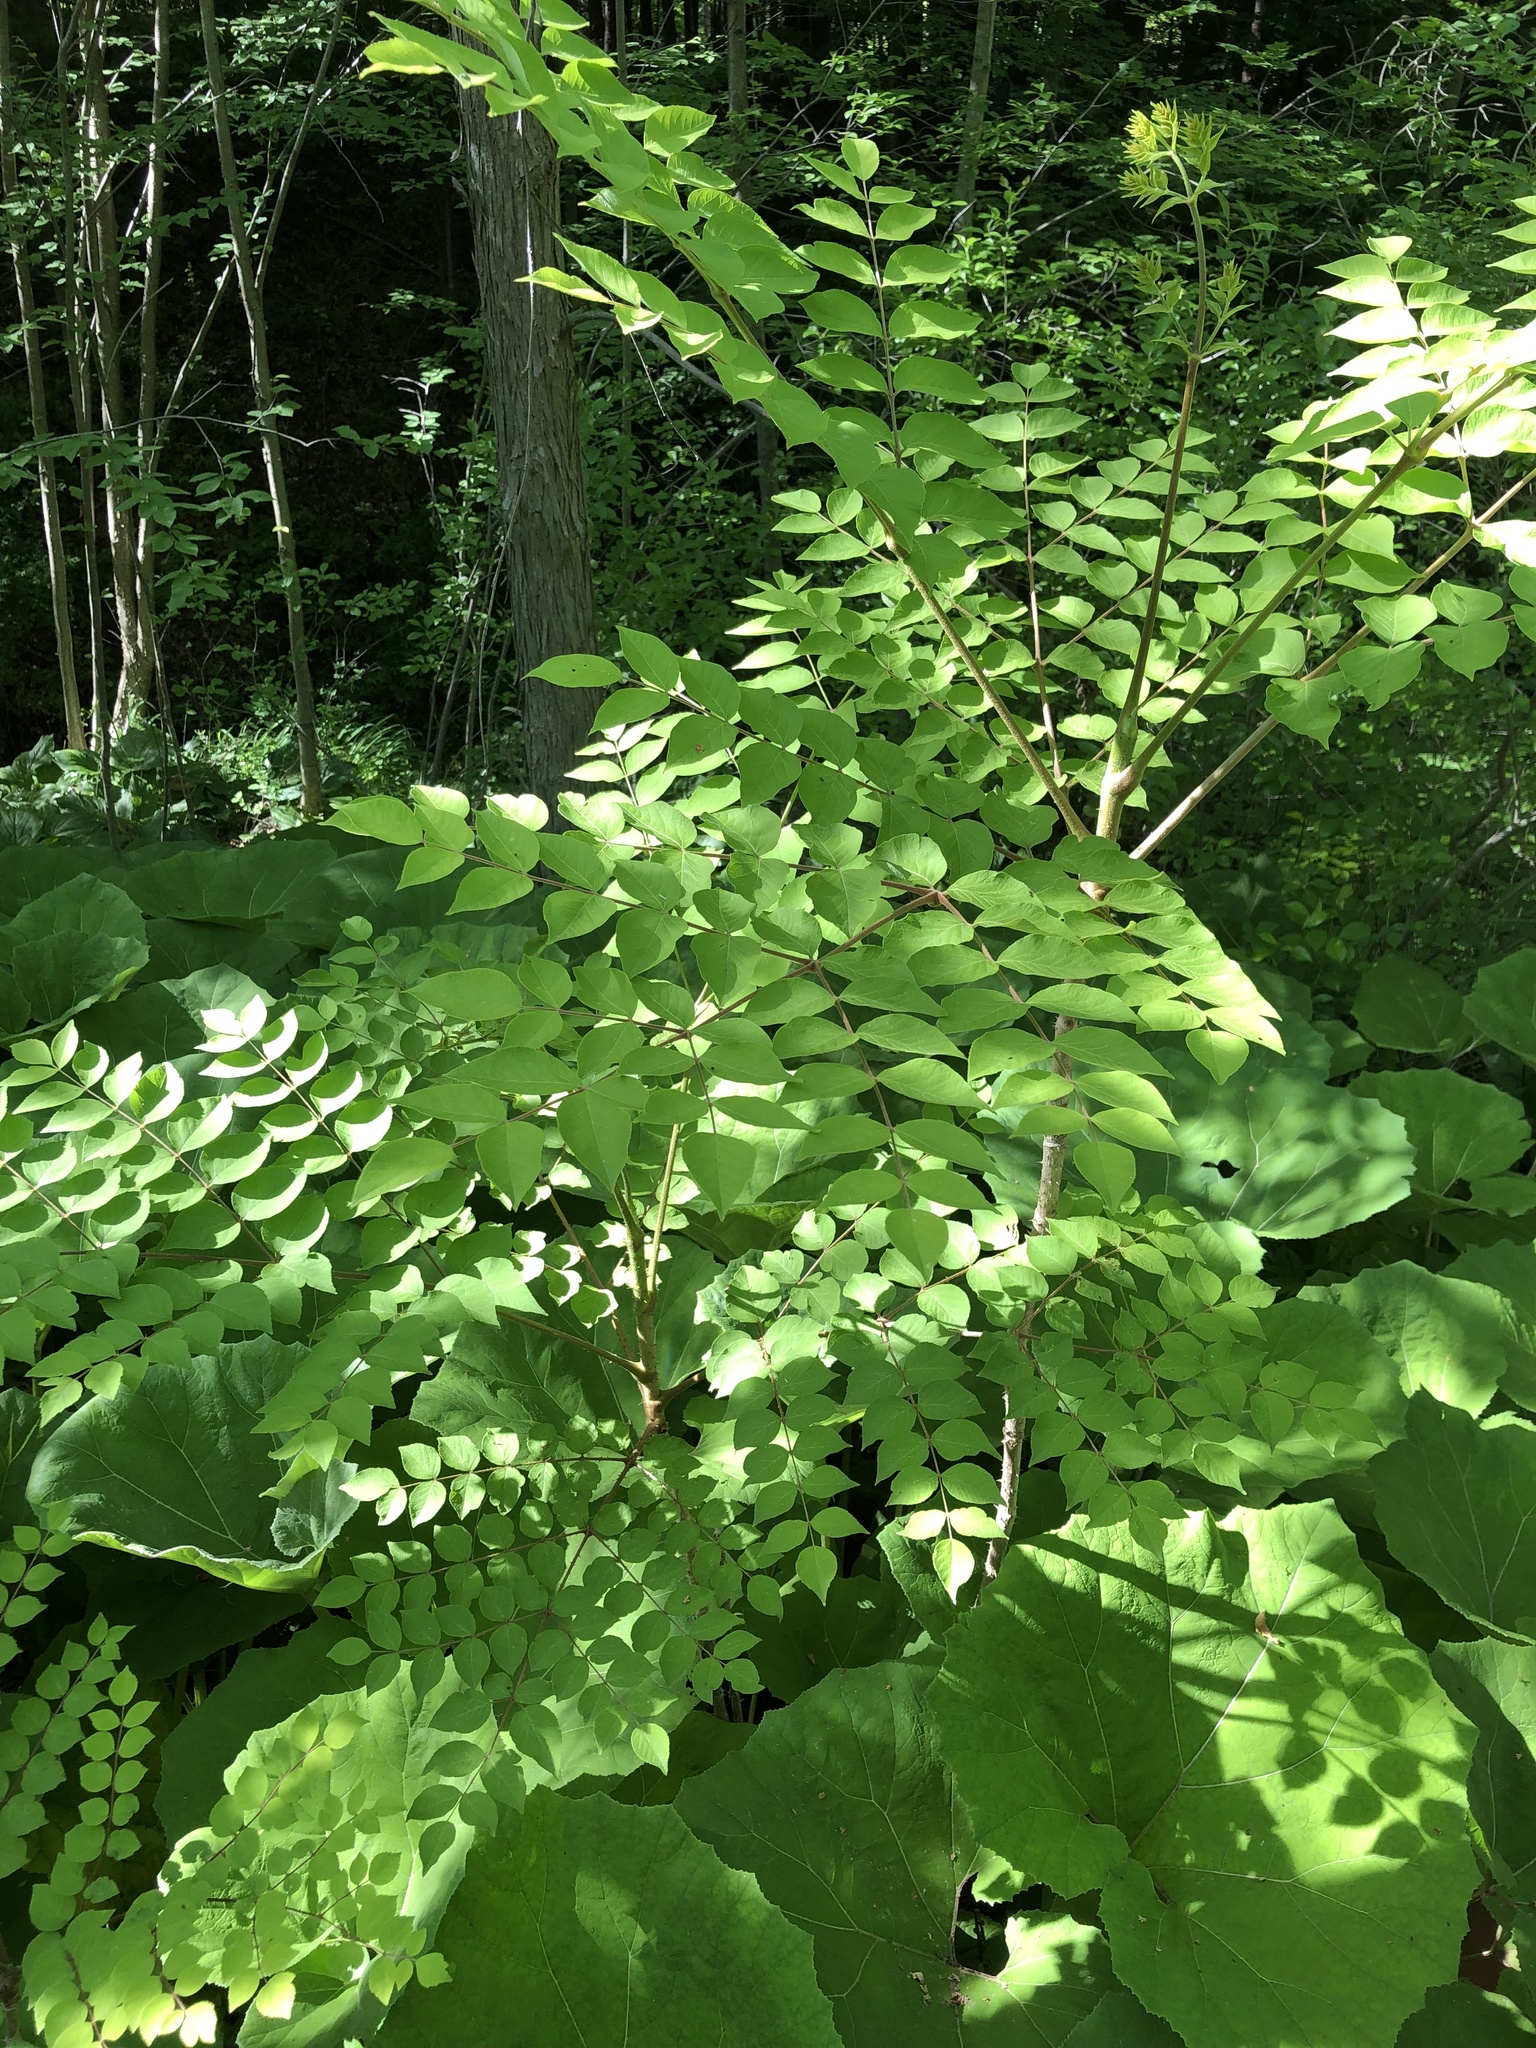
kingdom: Plantae
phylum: Tracheophyta
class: Magnoliopsida
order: Apiales
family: Araliaceae
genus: Aralia
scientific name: Aralia elata
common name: Japanese angelica-tree
